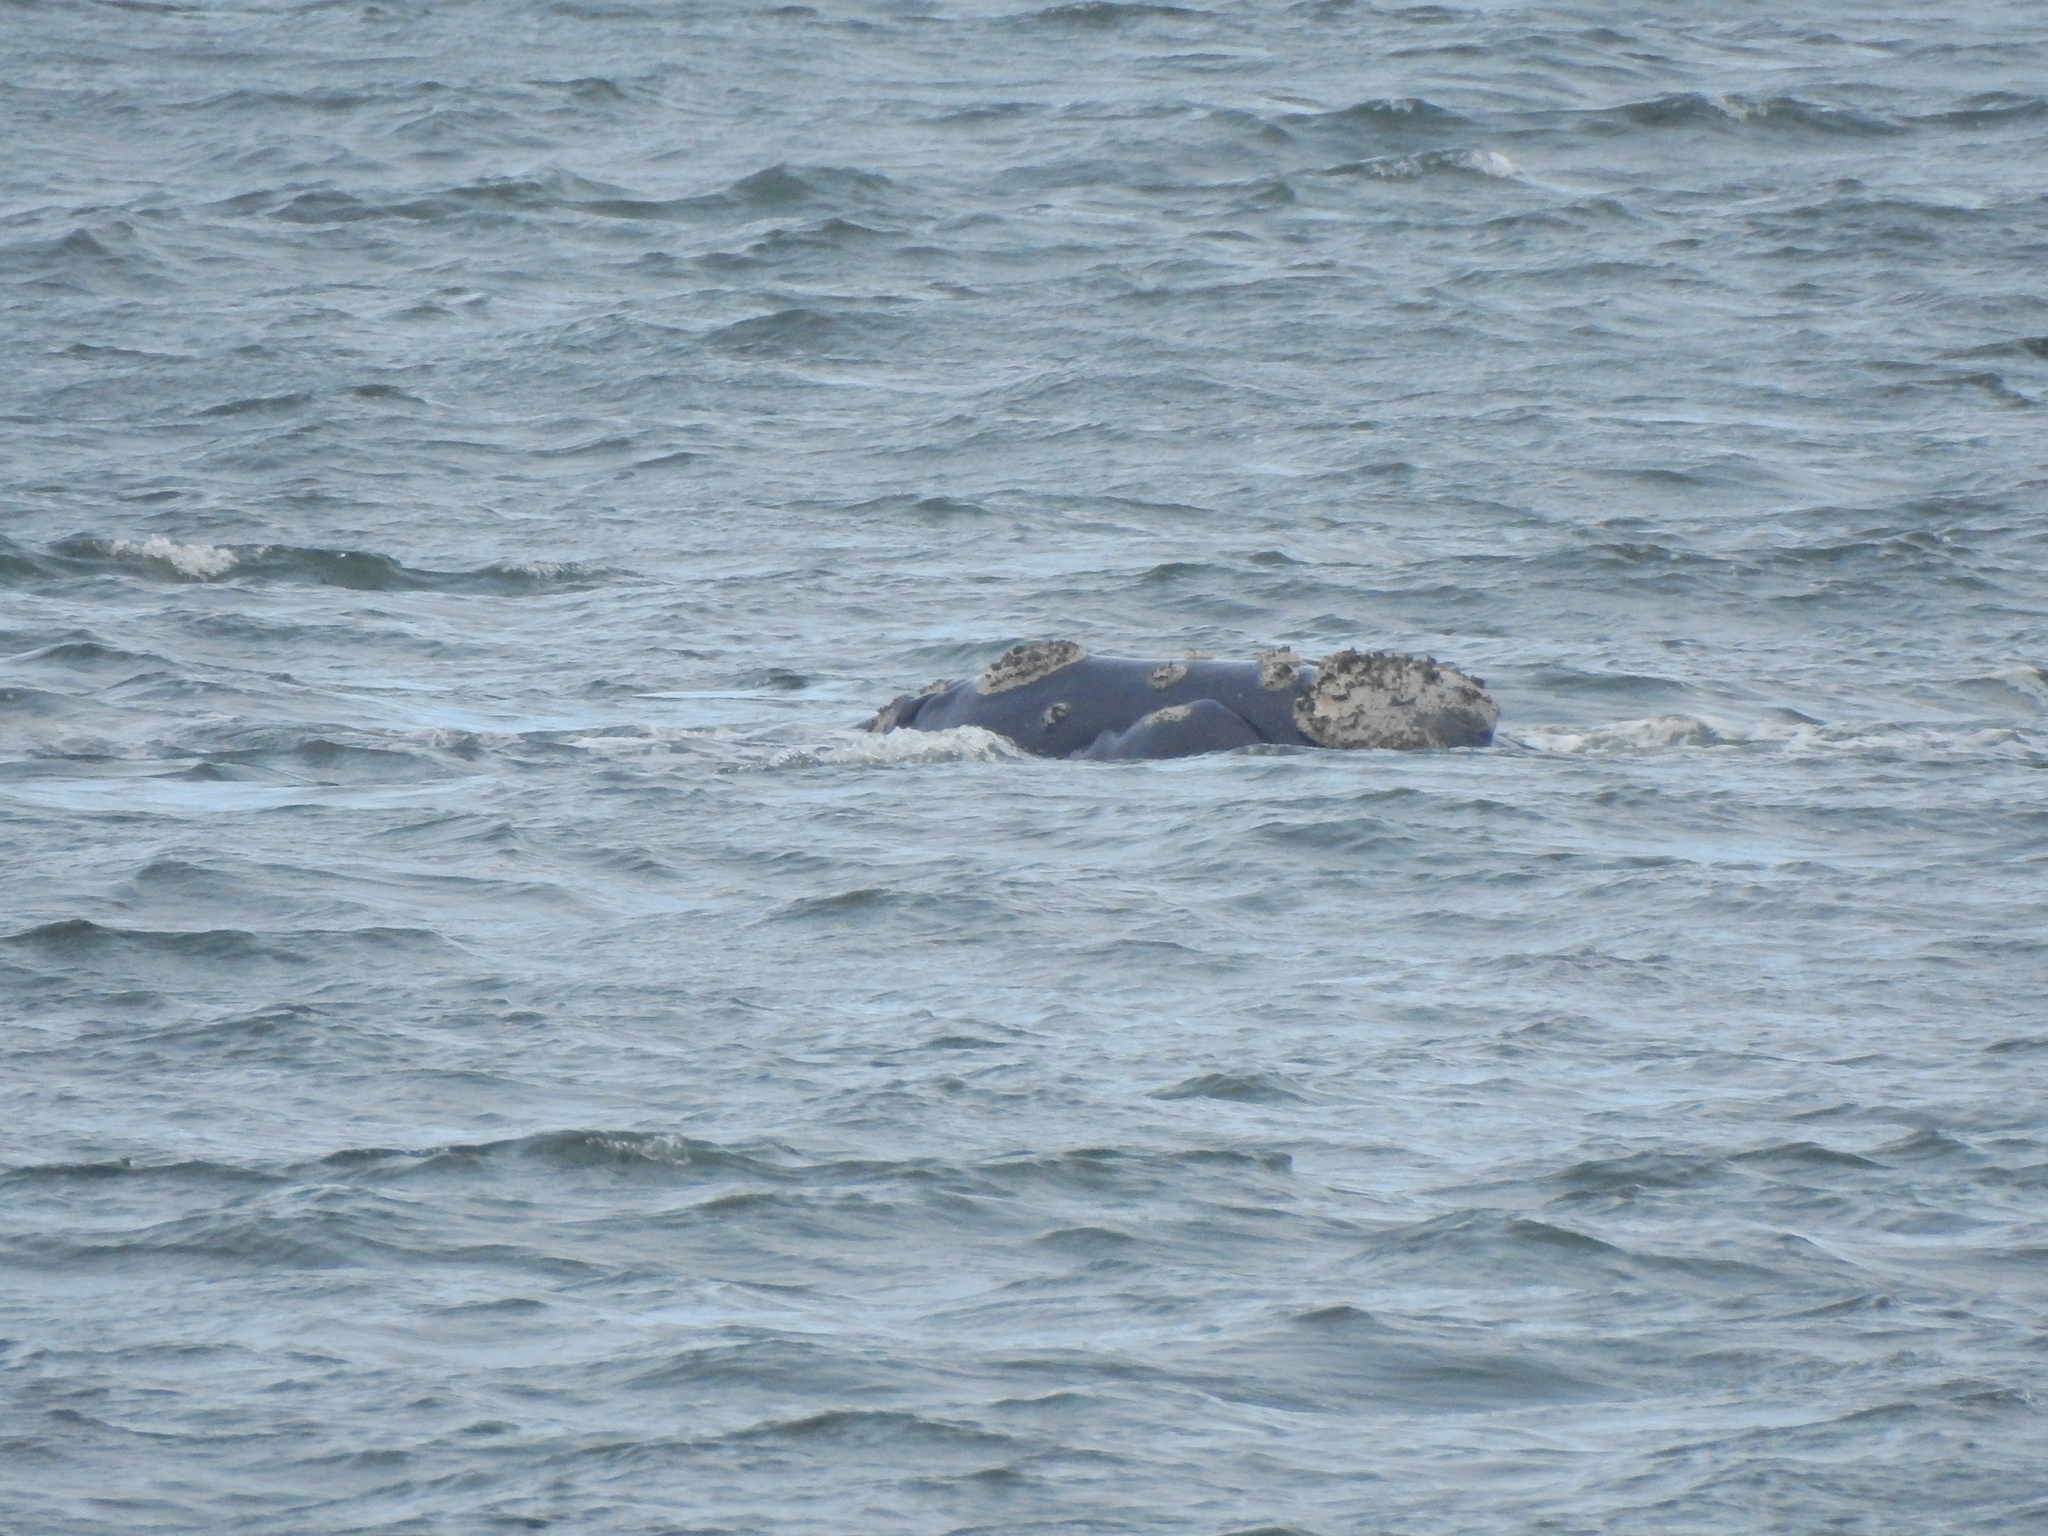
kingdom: Animalia
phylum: Chordata
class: Mammalia
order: Cetacea
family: Balaenidae
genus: Eubalaena
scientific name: Eubalaena australis
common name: Southern right whale
